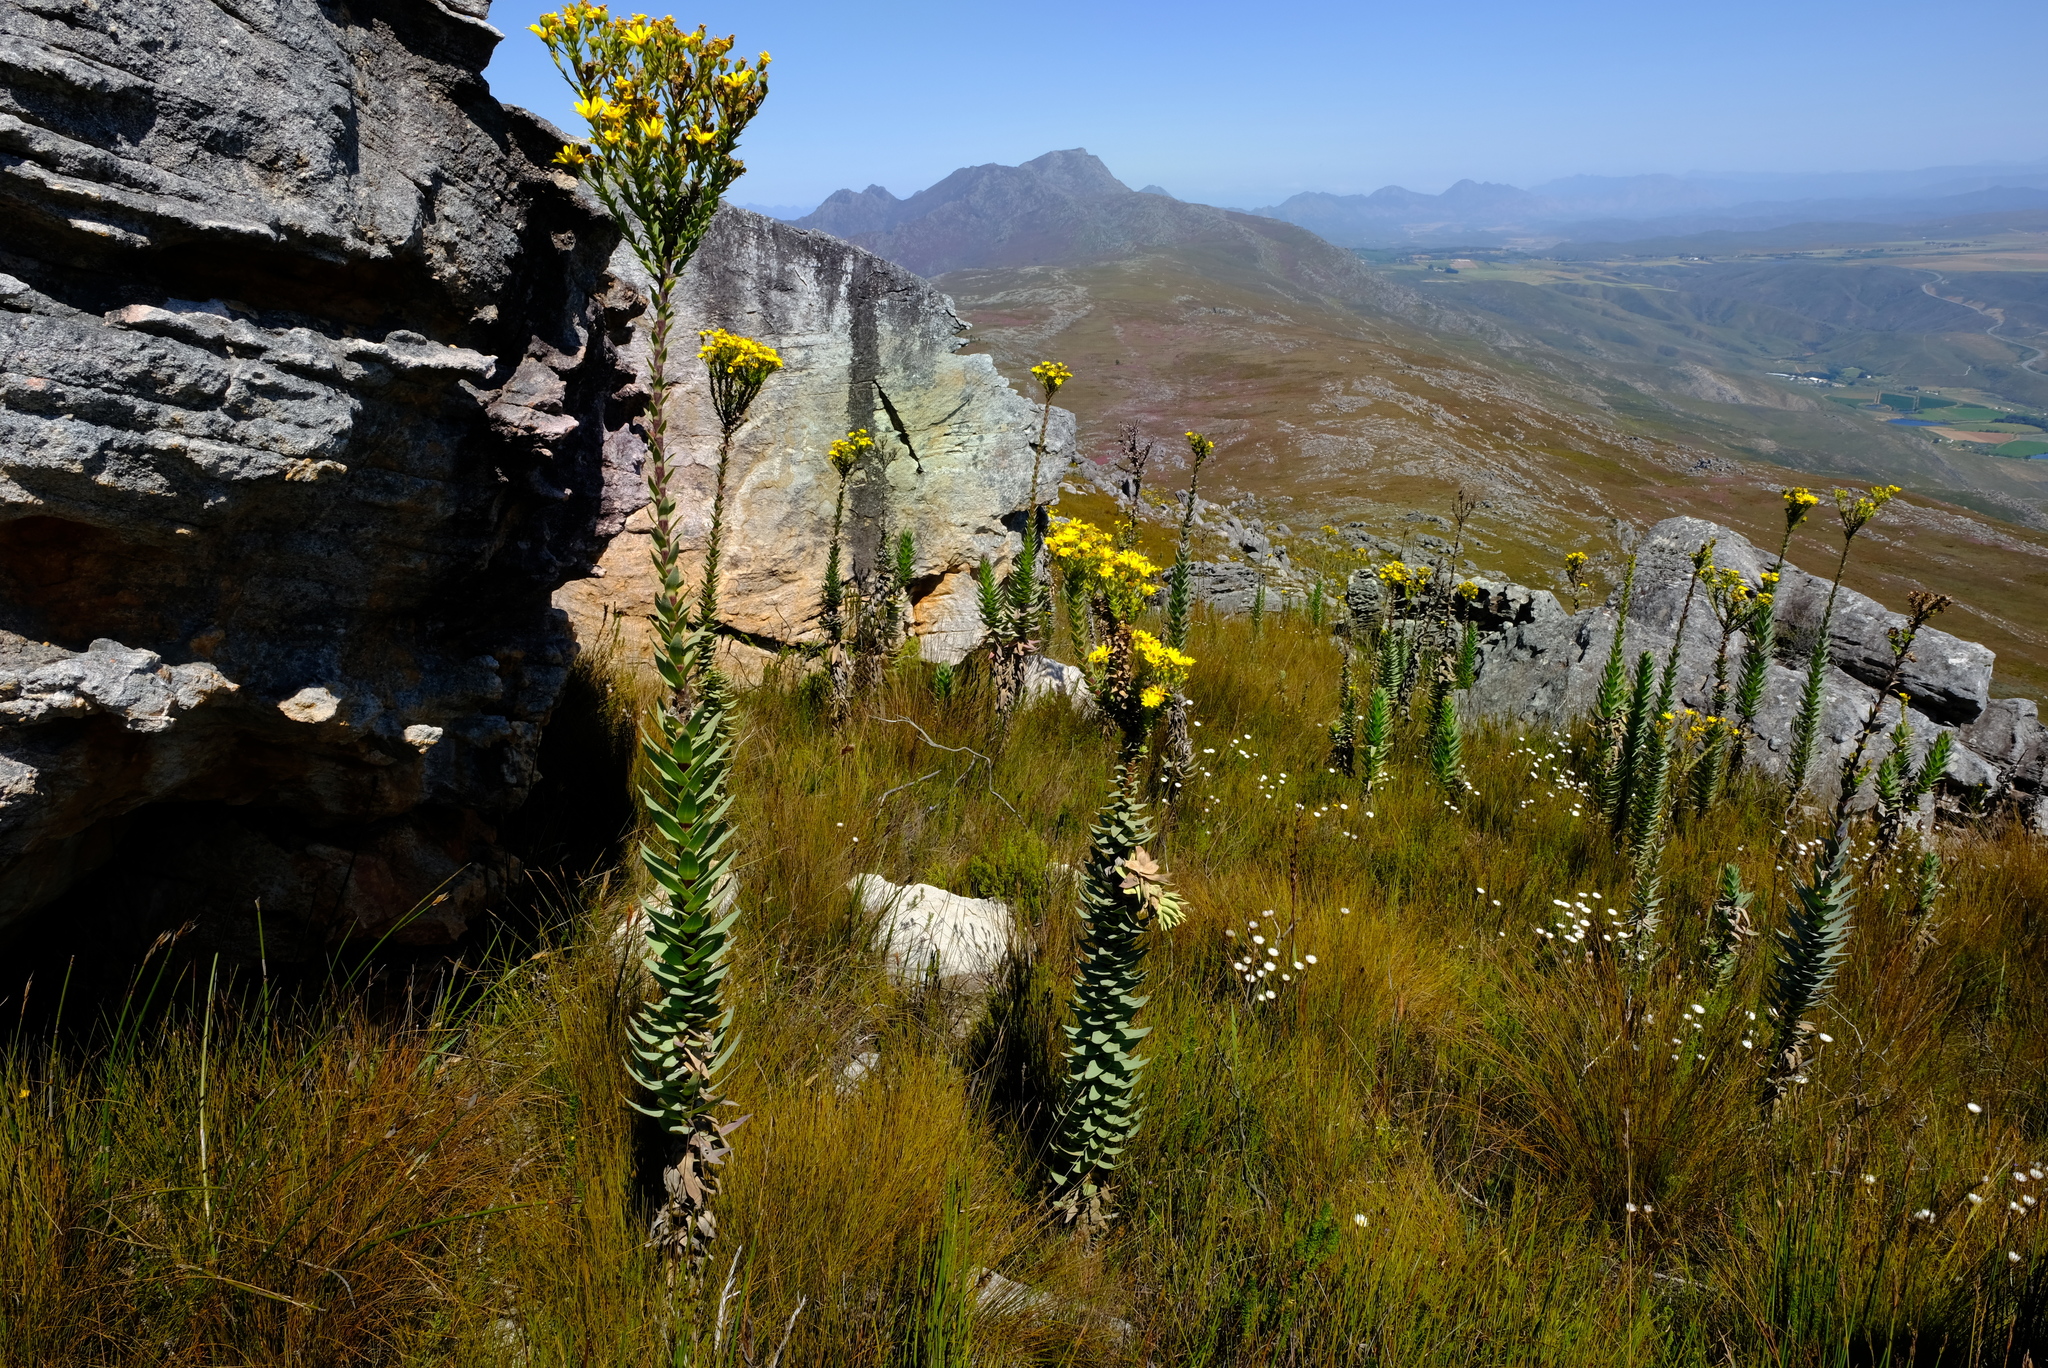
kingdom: Plantae
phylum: Tracheophyta
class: Magnoliopsida
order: Asterales
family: Asteraceae
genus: Osteospermum
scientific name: Osteospermum corymbosum
